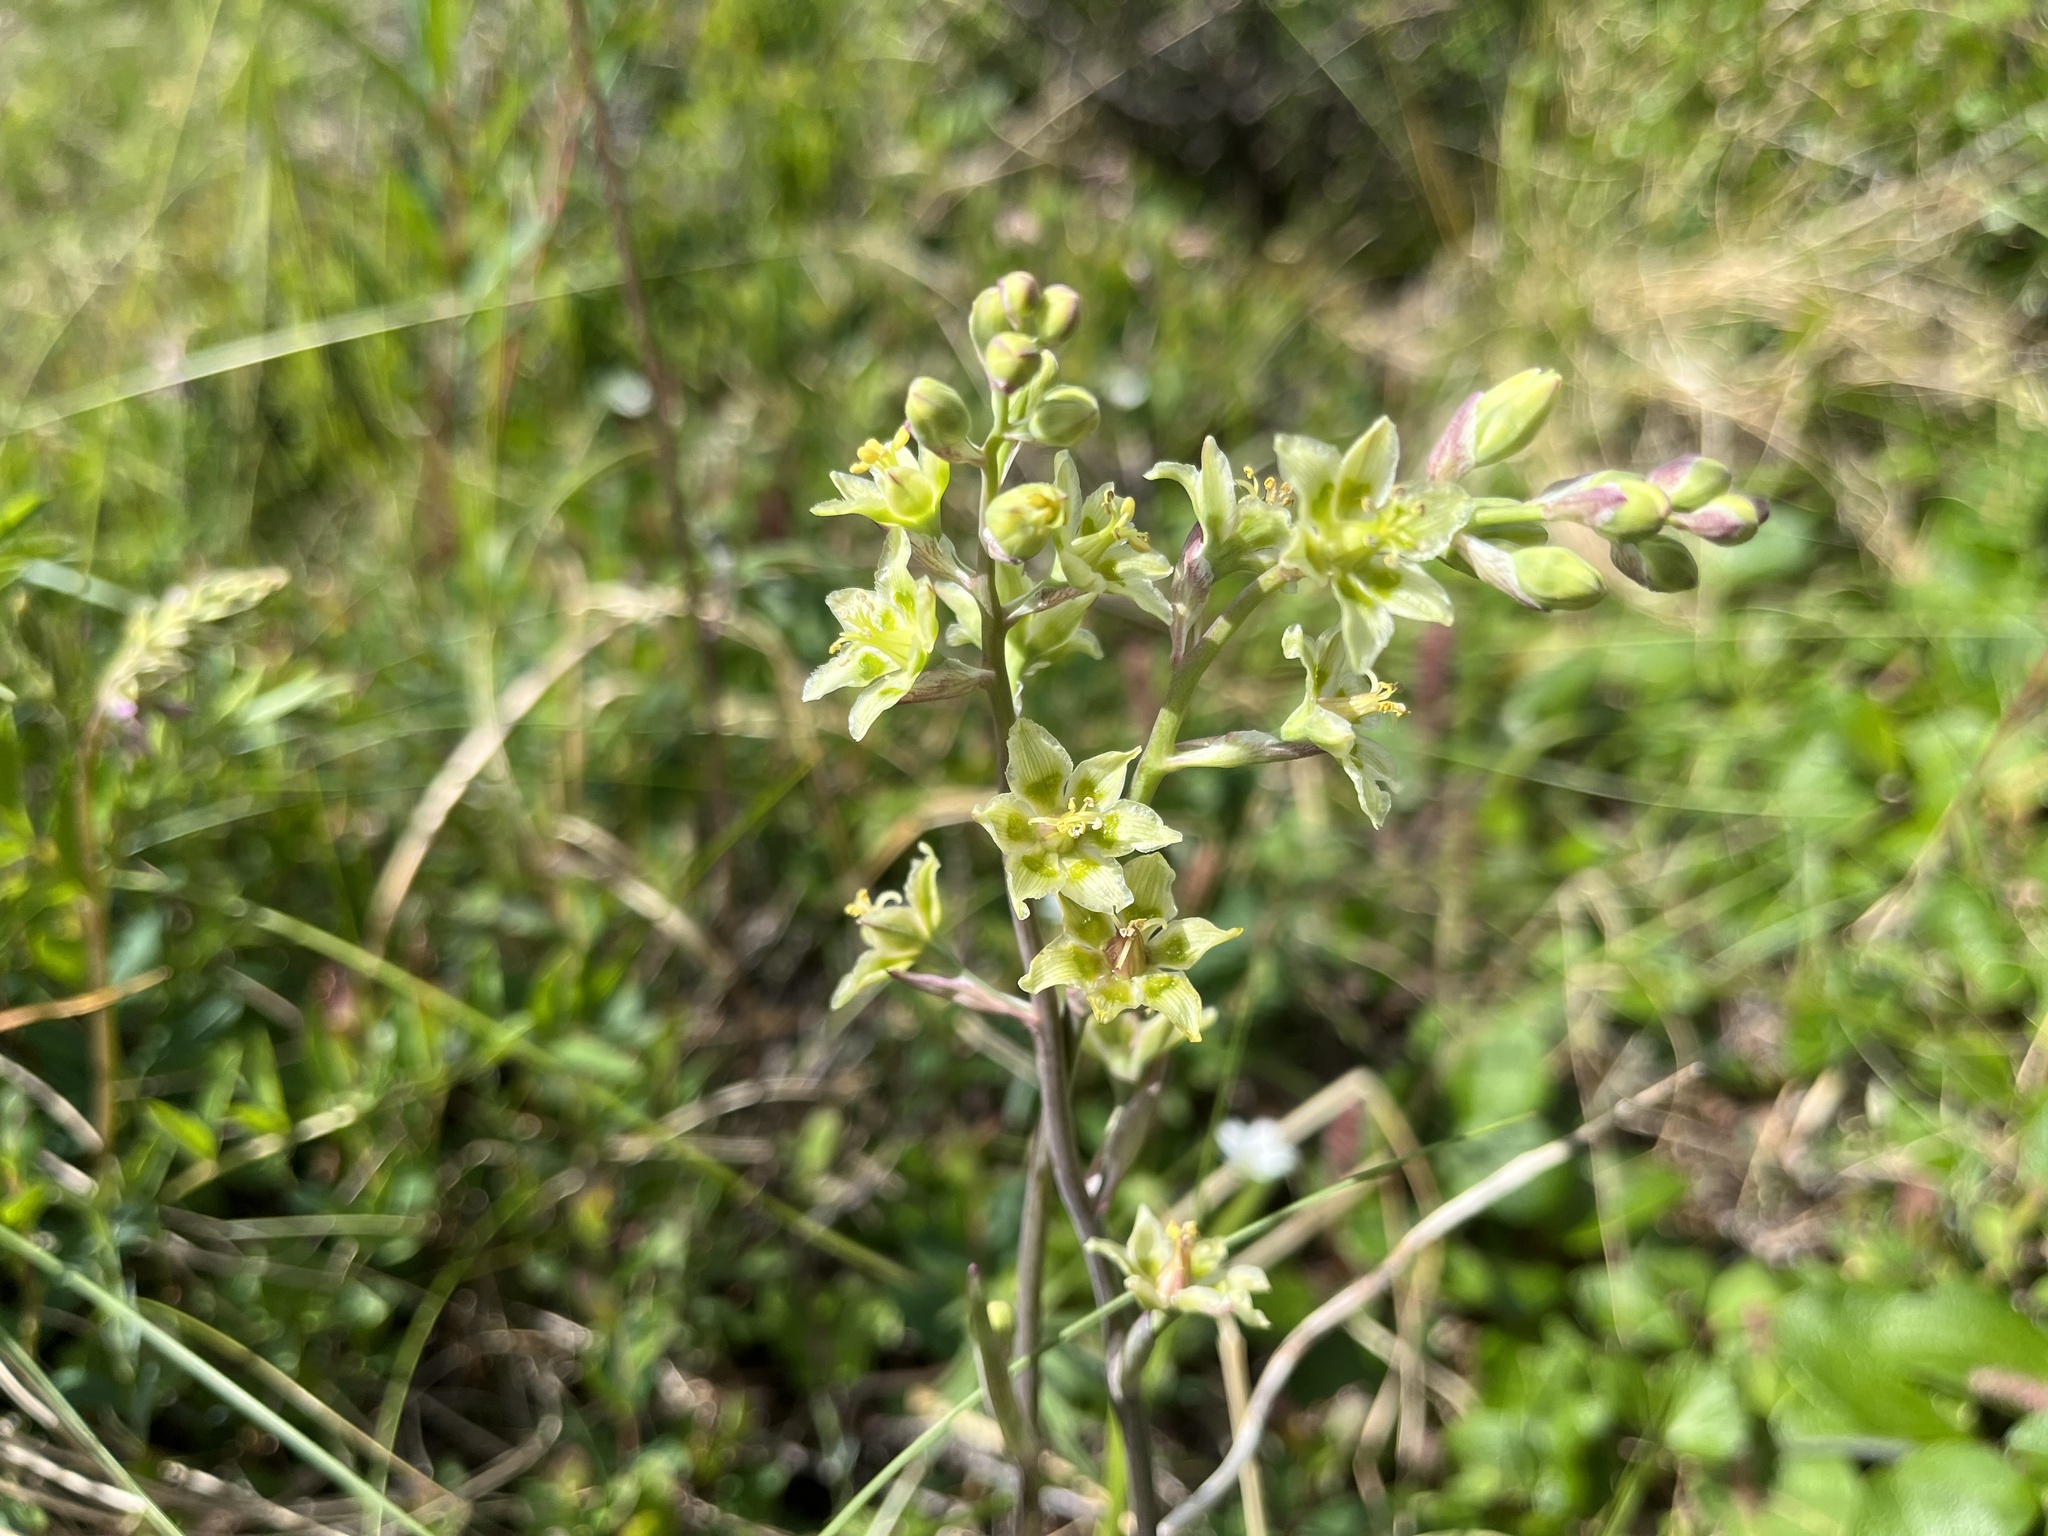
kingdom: Plantae
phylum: Tracheophyta
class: Liliopsida
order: Liliales
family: Melanthiaceae
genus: Anticlea
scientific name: Anticlea elegans
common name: Mountain death camas
